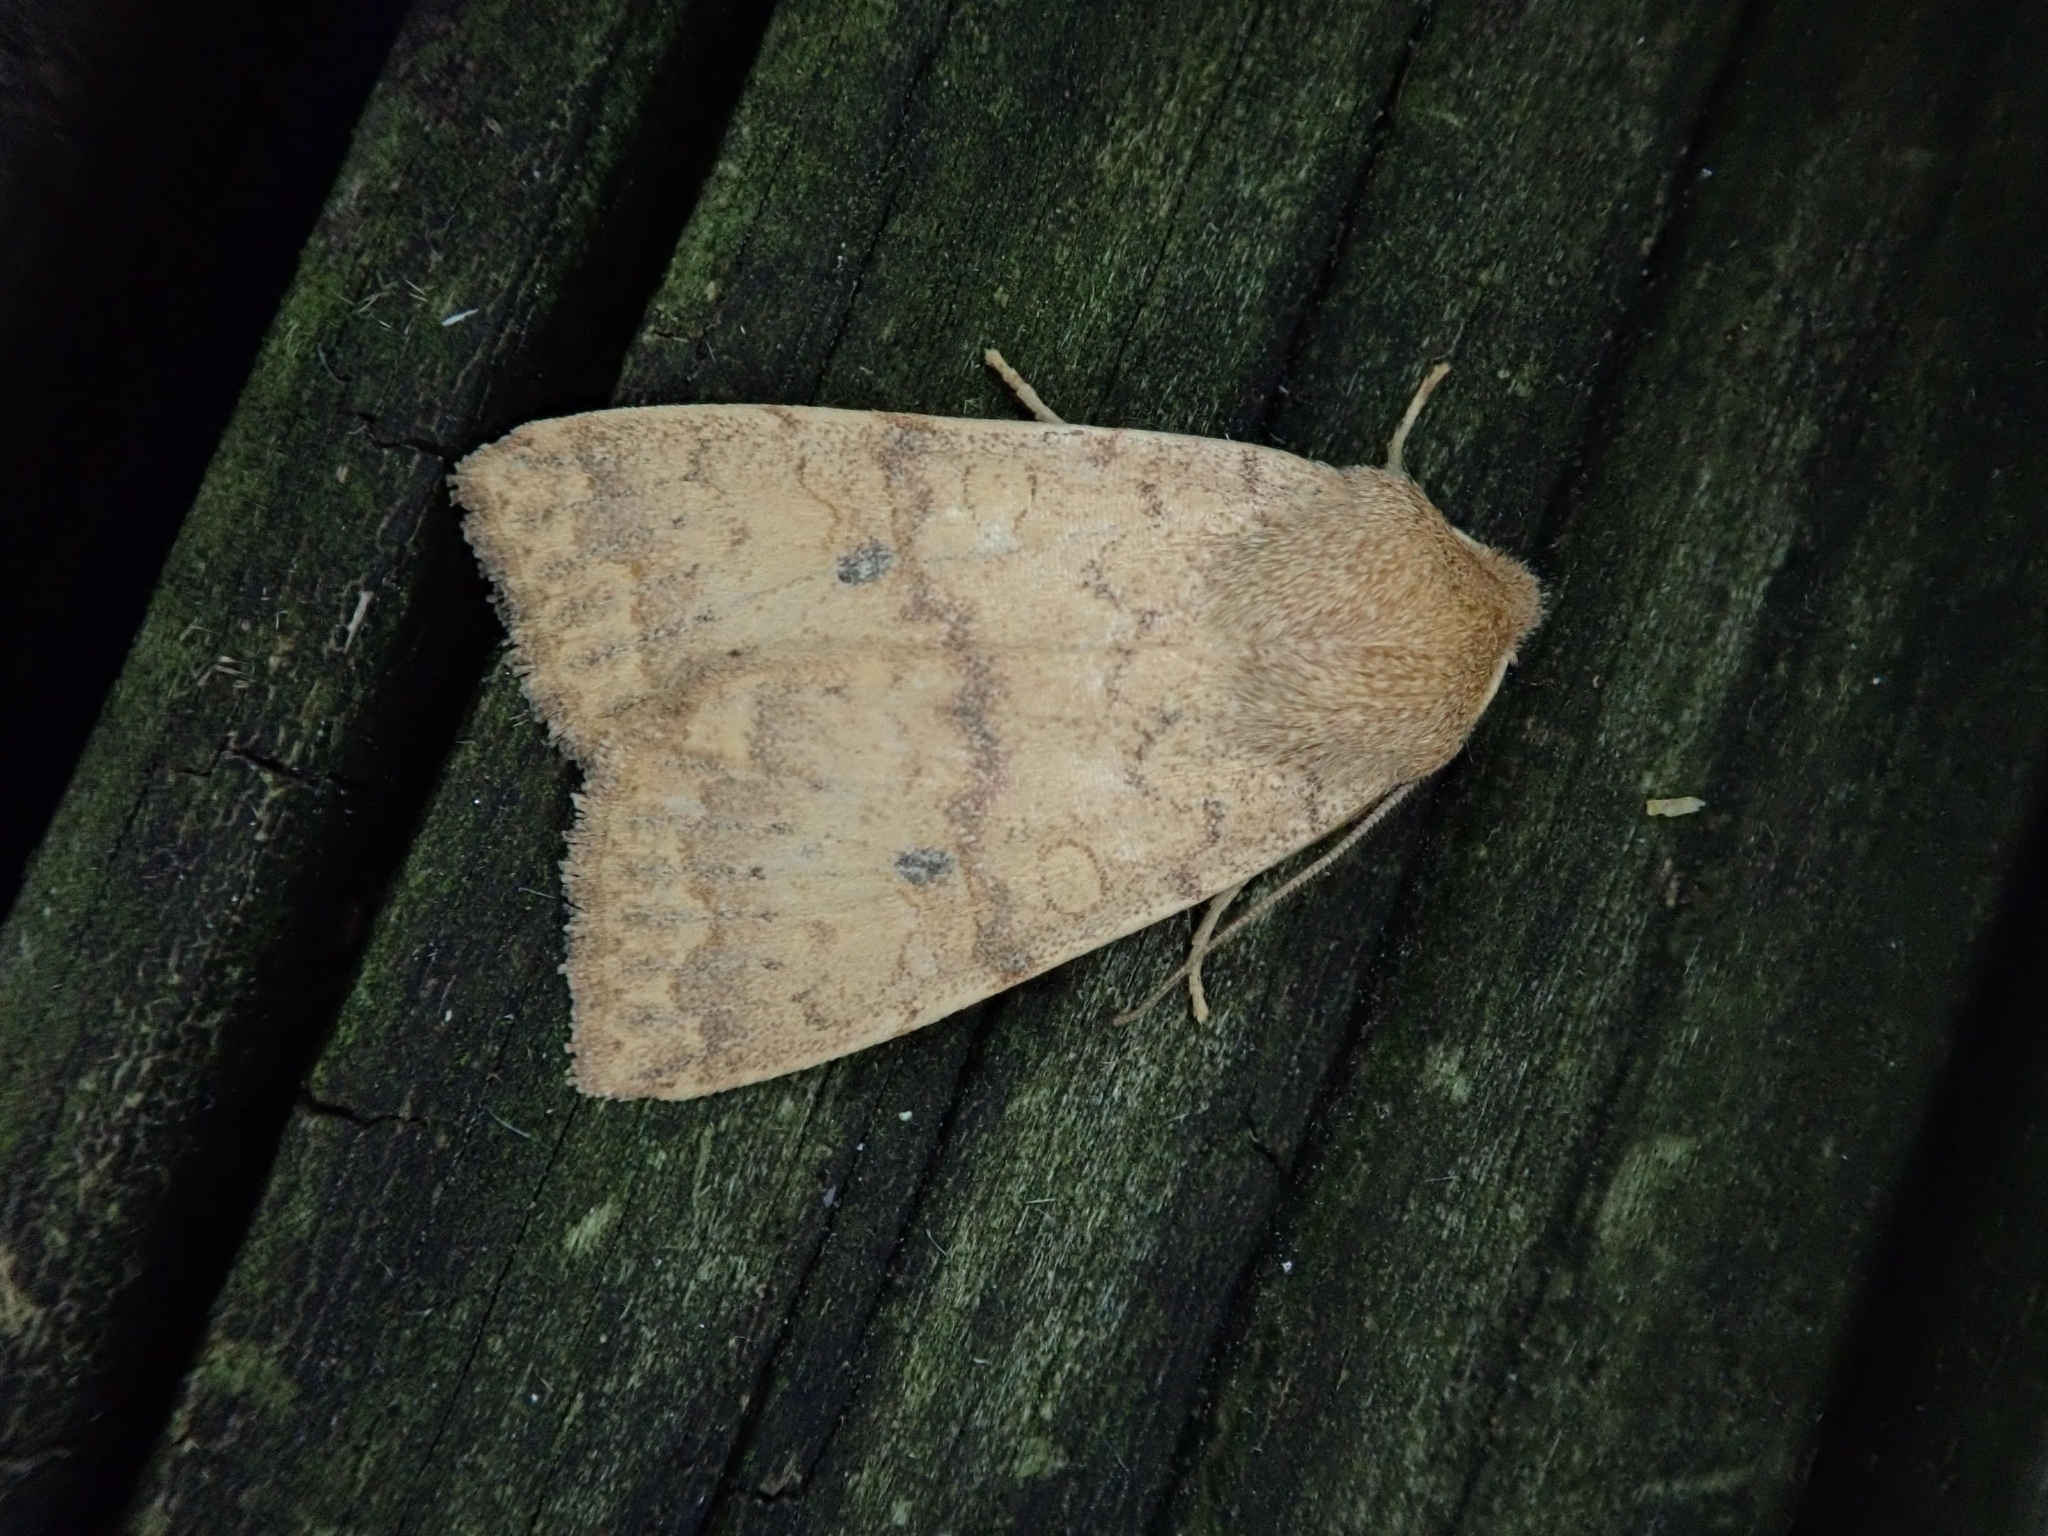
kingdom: Animalia
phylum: Arthropoda
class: Insecta
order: Lepidoptera
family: Noctuidae
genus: Agrochola
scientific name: Agrochola bicolorago
